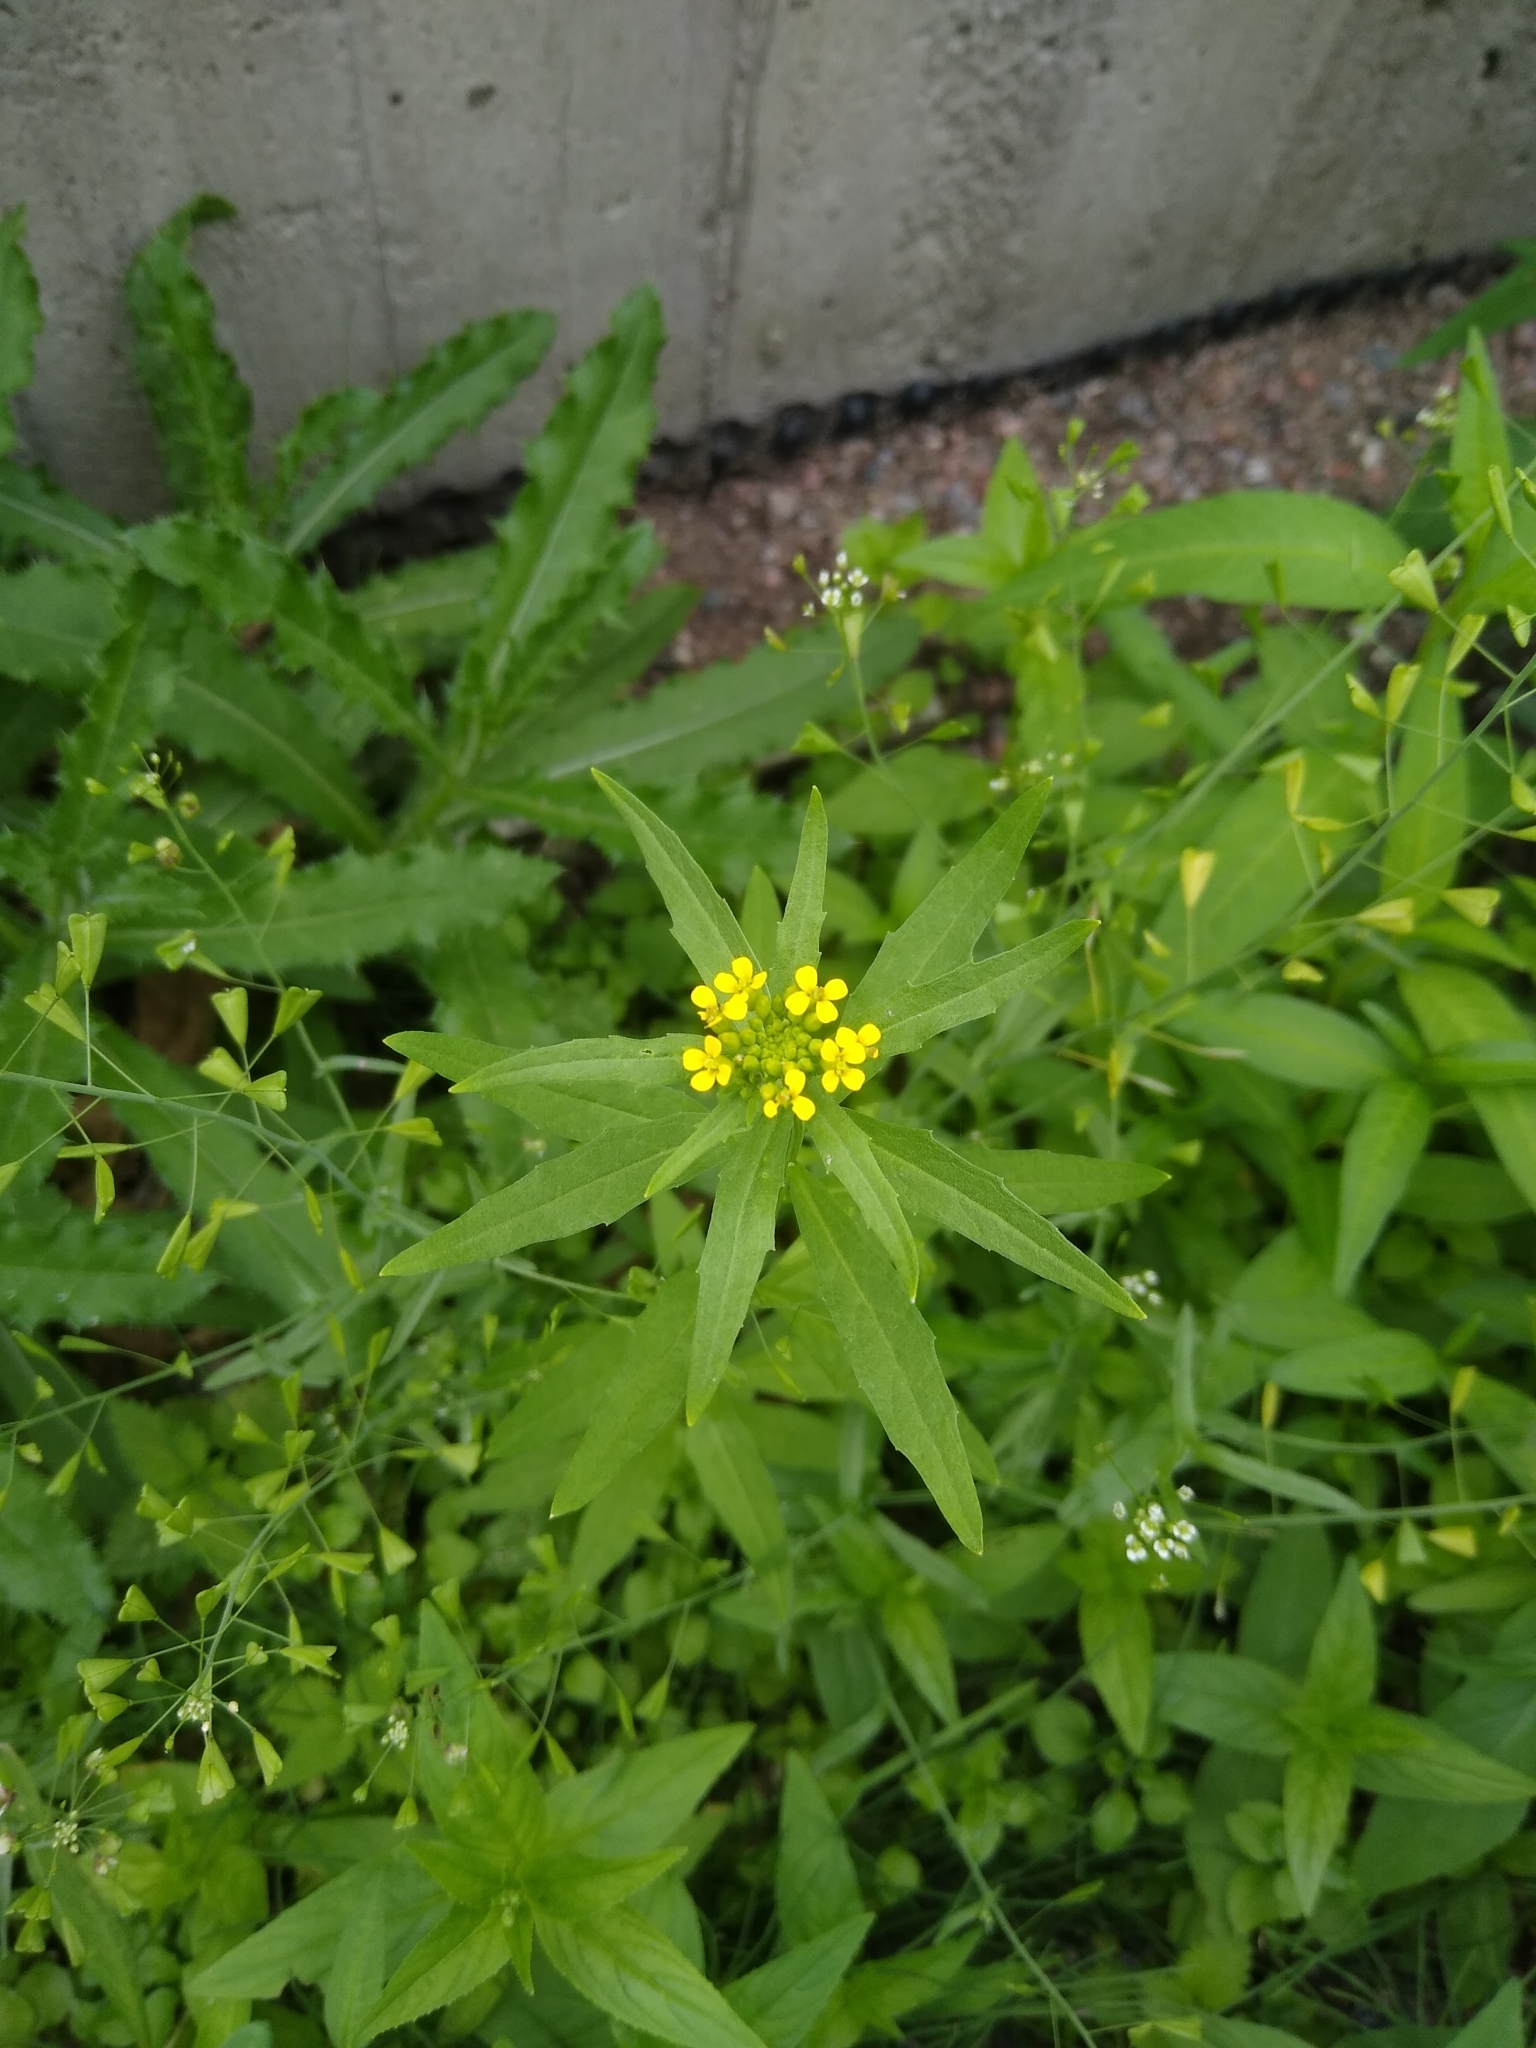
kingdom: Plantae
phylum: Tracheophyta
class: Magnoliopsida
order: Brassicales
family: Brassicaceae
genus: Erysimum
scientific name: Erysimum cheiranthoides
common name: Treacle mustard
